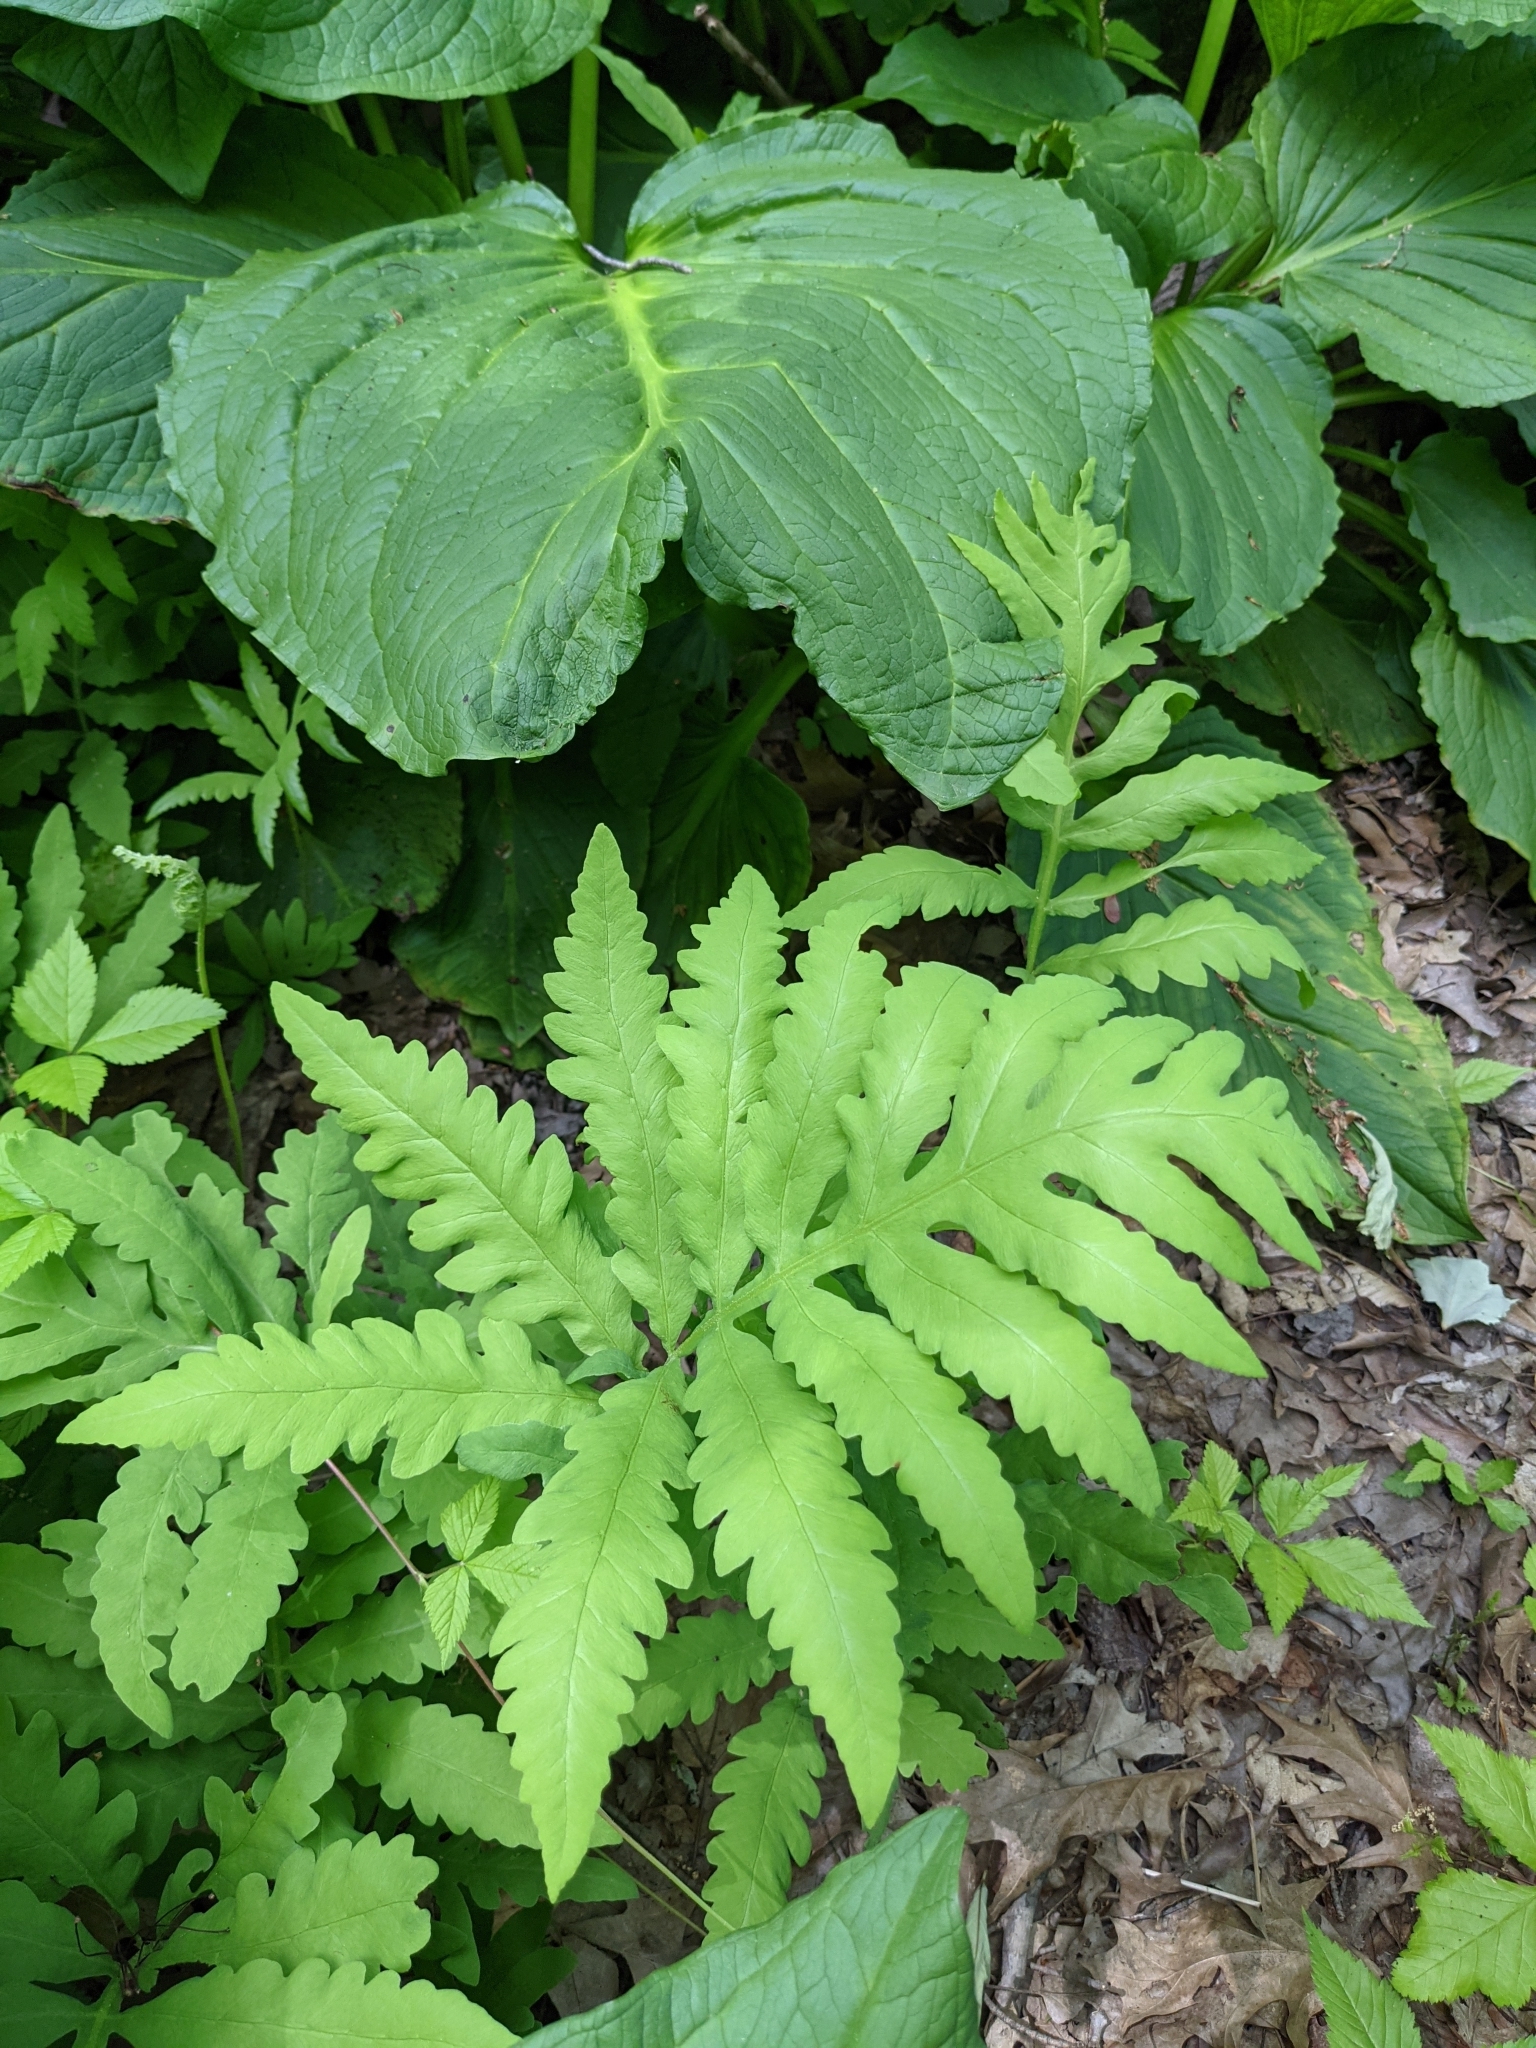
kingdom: Plantae
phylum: Tracheophyta
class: Polypodiopsida
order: Polypodiales
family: Onocleaceae
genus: Onoclea
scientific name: Onoclea sensibilis
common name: Sensitive fern
